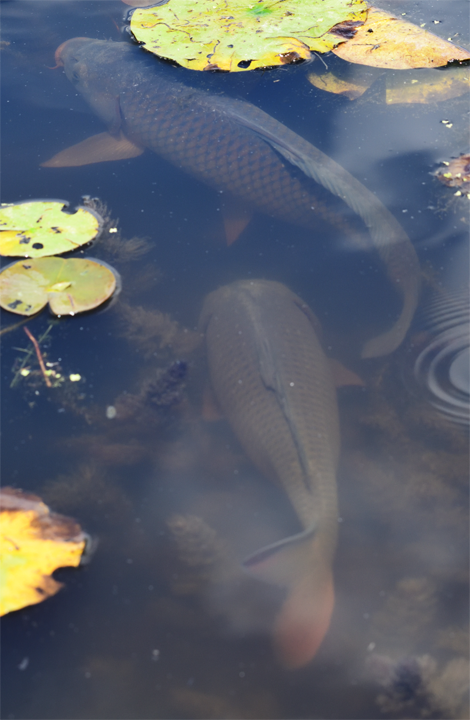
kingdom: Animalia
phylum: Chordata
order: Cypriniformes
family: Cyprinidae
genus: Cyprinus
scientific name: Cyprinus carpio
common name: Common carp
